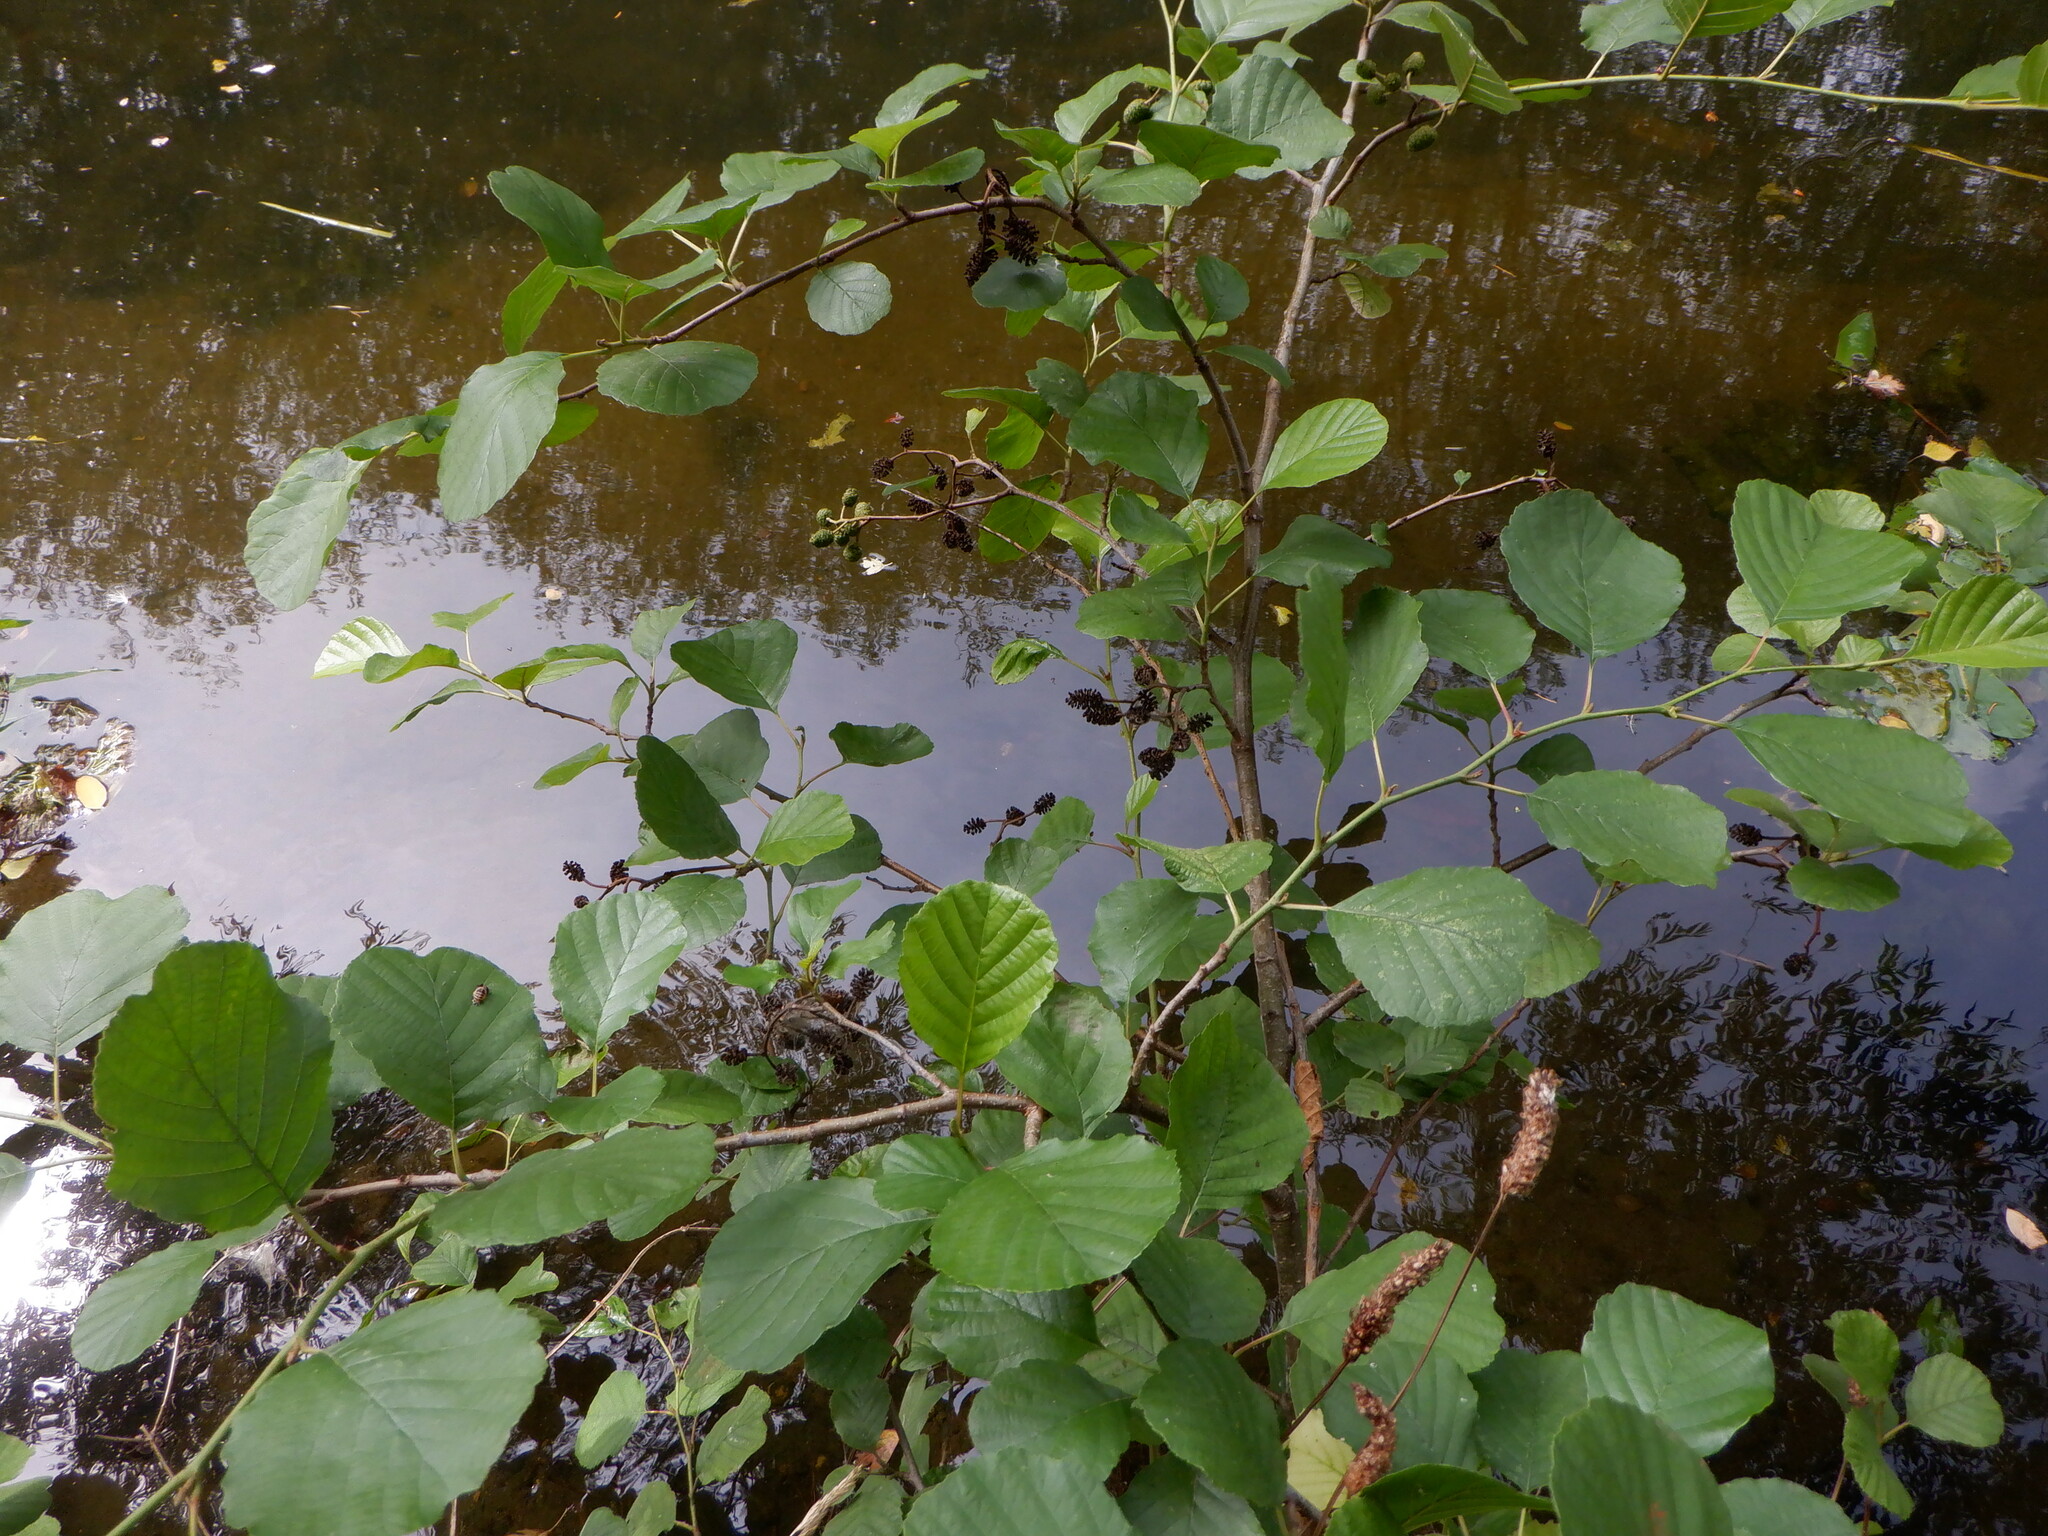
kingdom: Plantae
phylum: Tracheophyta
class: Magnoliopsida
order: Fagales
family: Betulaceae
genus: Alnus
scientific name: Alnus glutinosa
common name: Black alder
